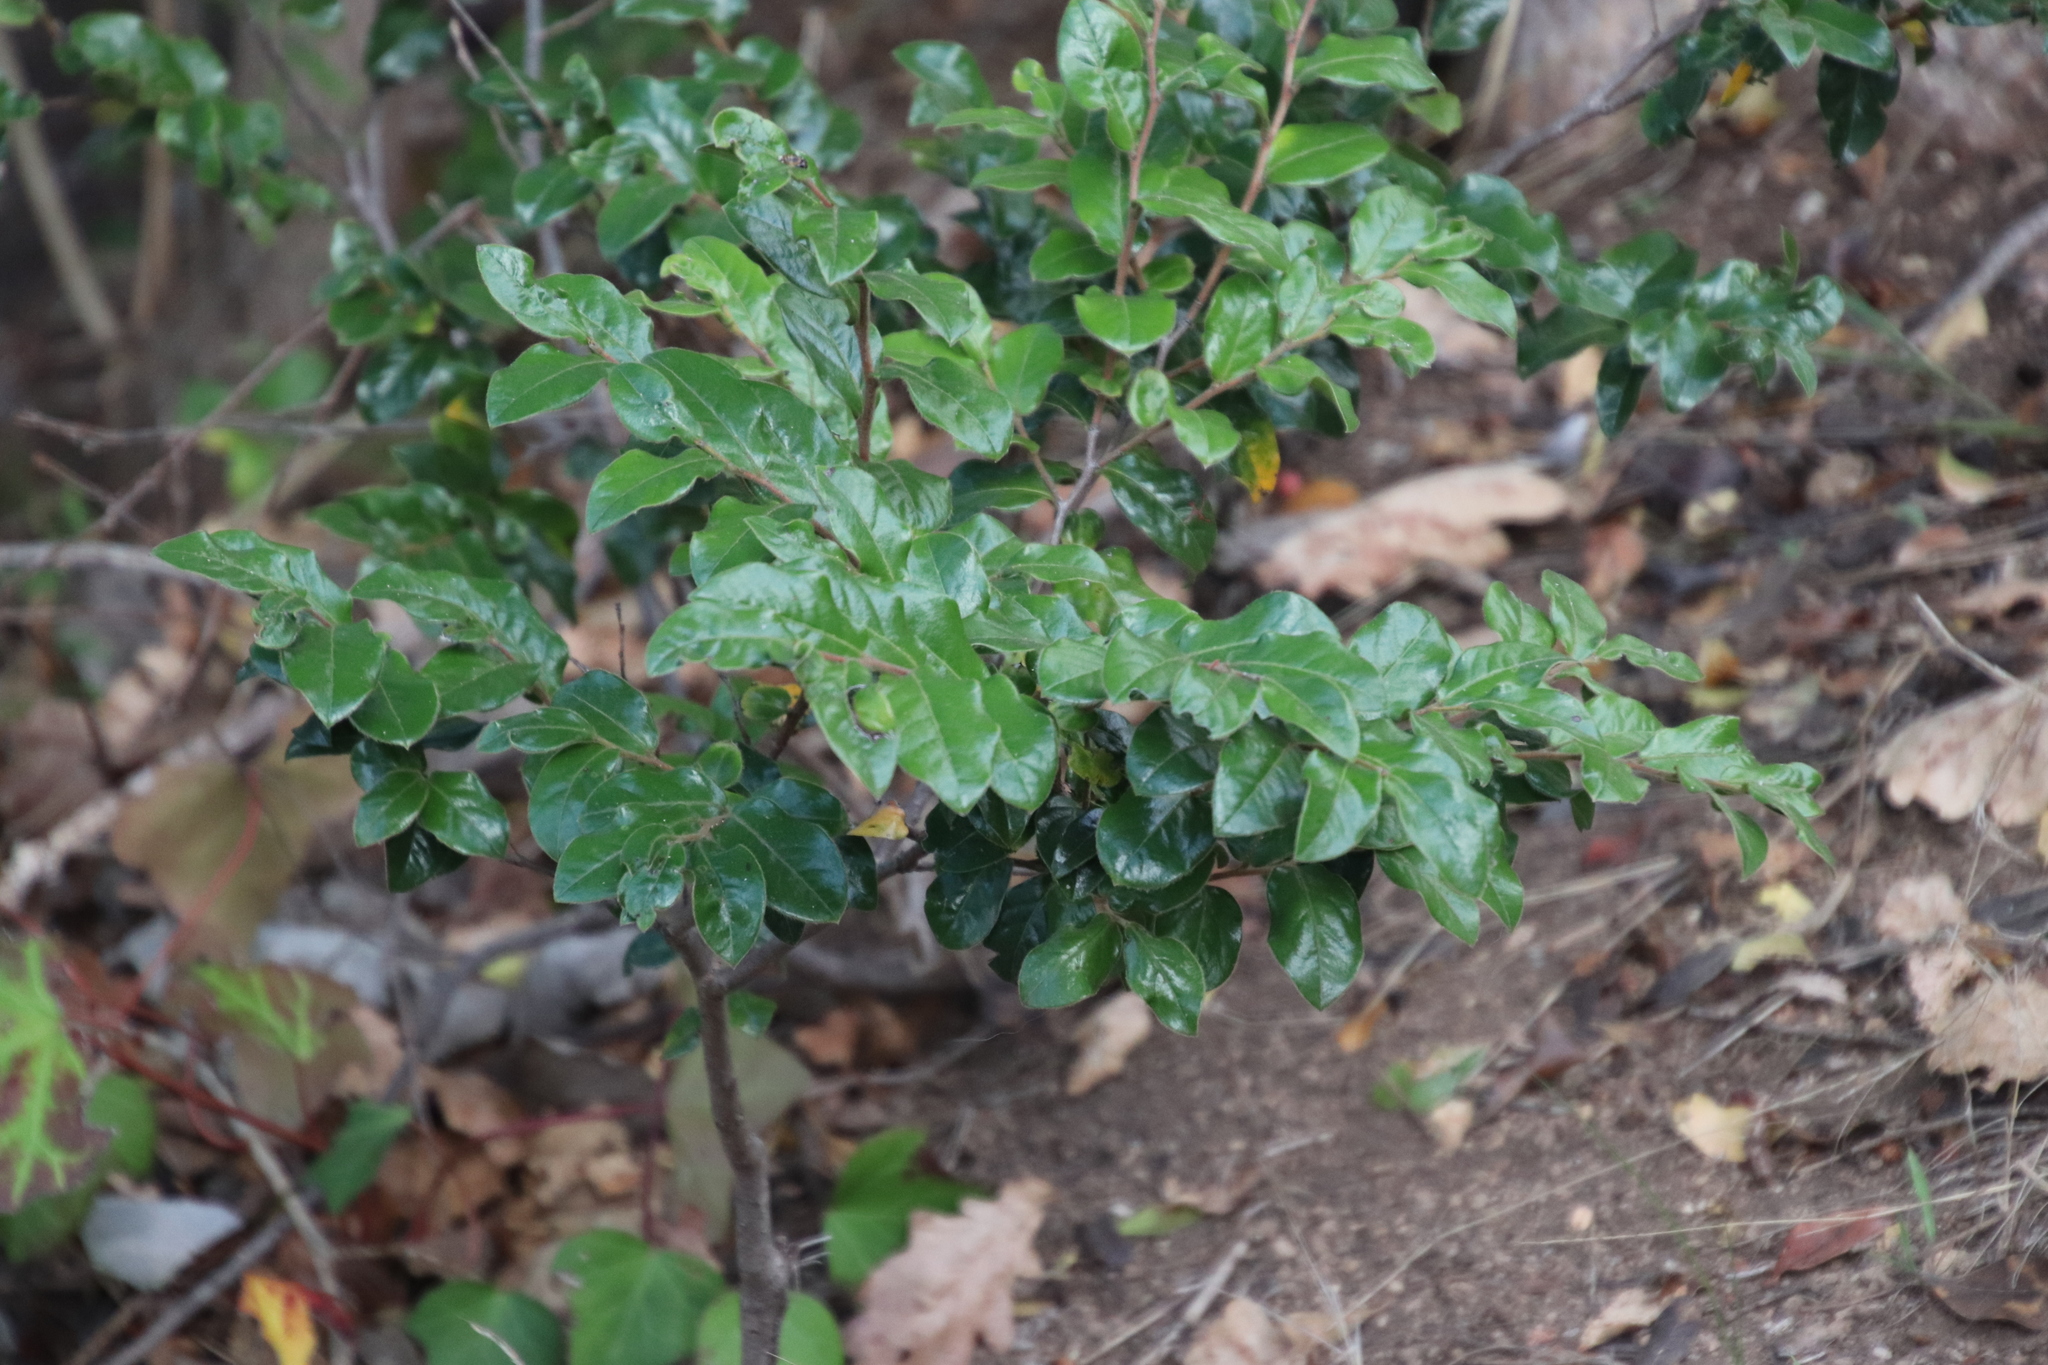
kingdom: Plantae
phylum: Tracheophyta
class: Magnoliopsida
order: Ericales
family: Ebenaceae
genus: Diospyros
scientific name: Diospyros whyteana
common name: Bladder-nut
